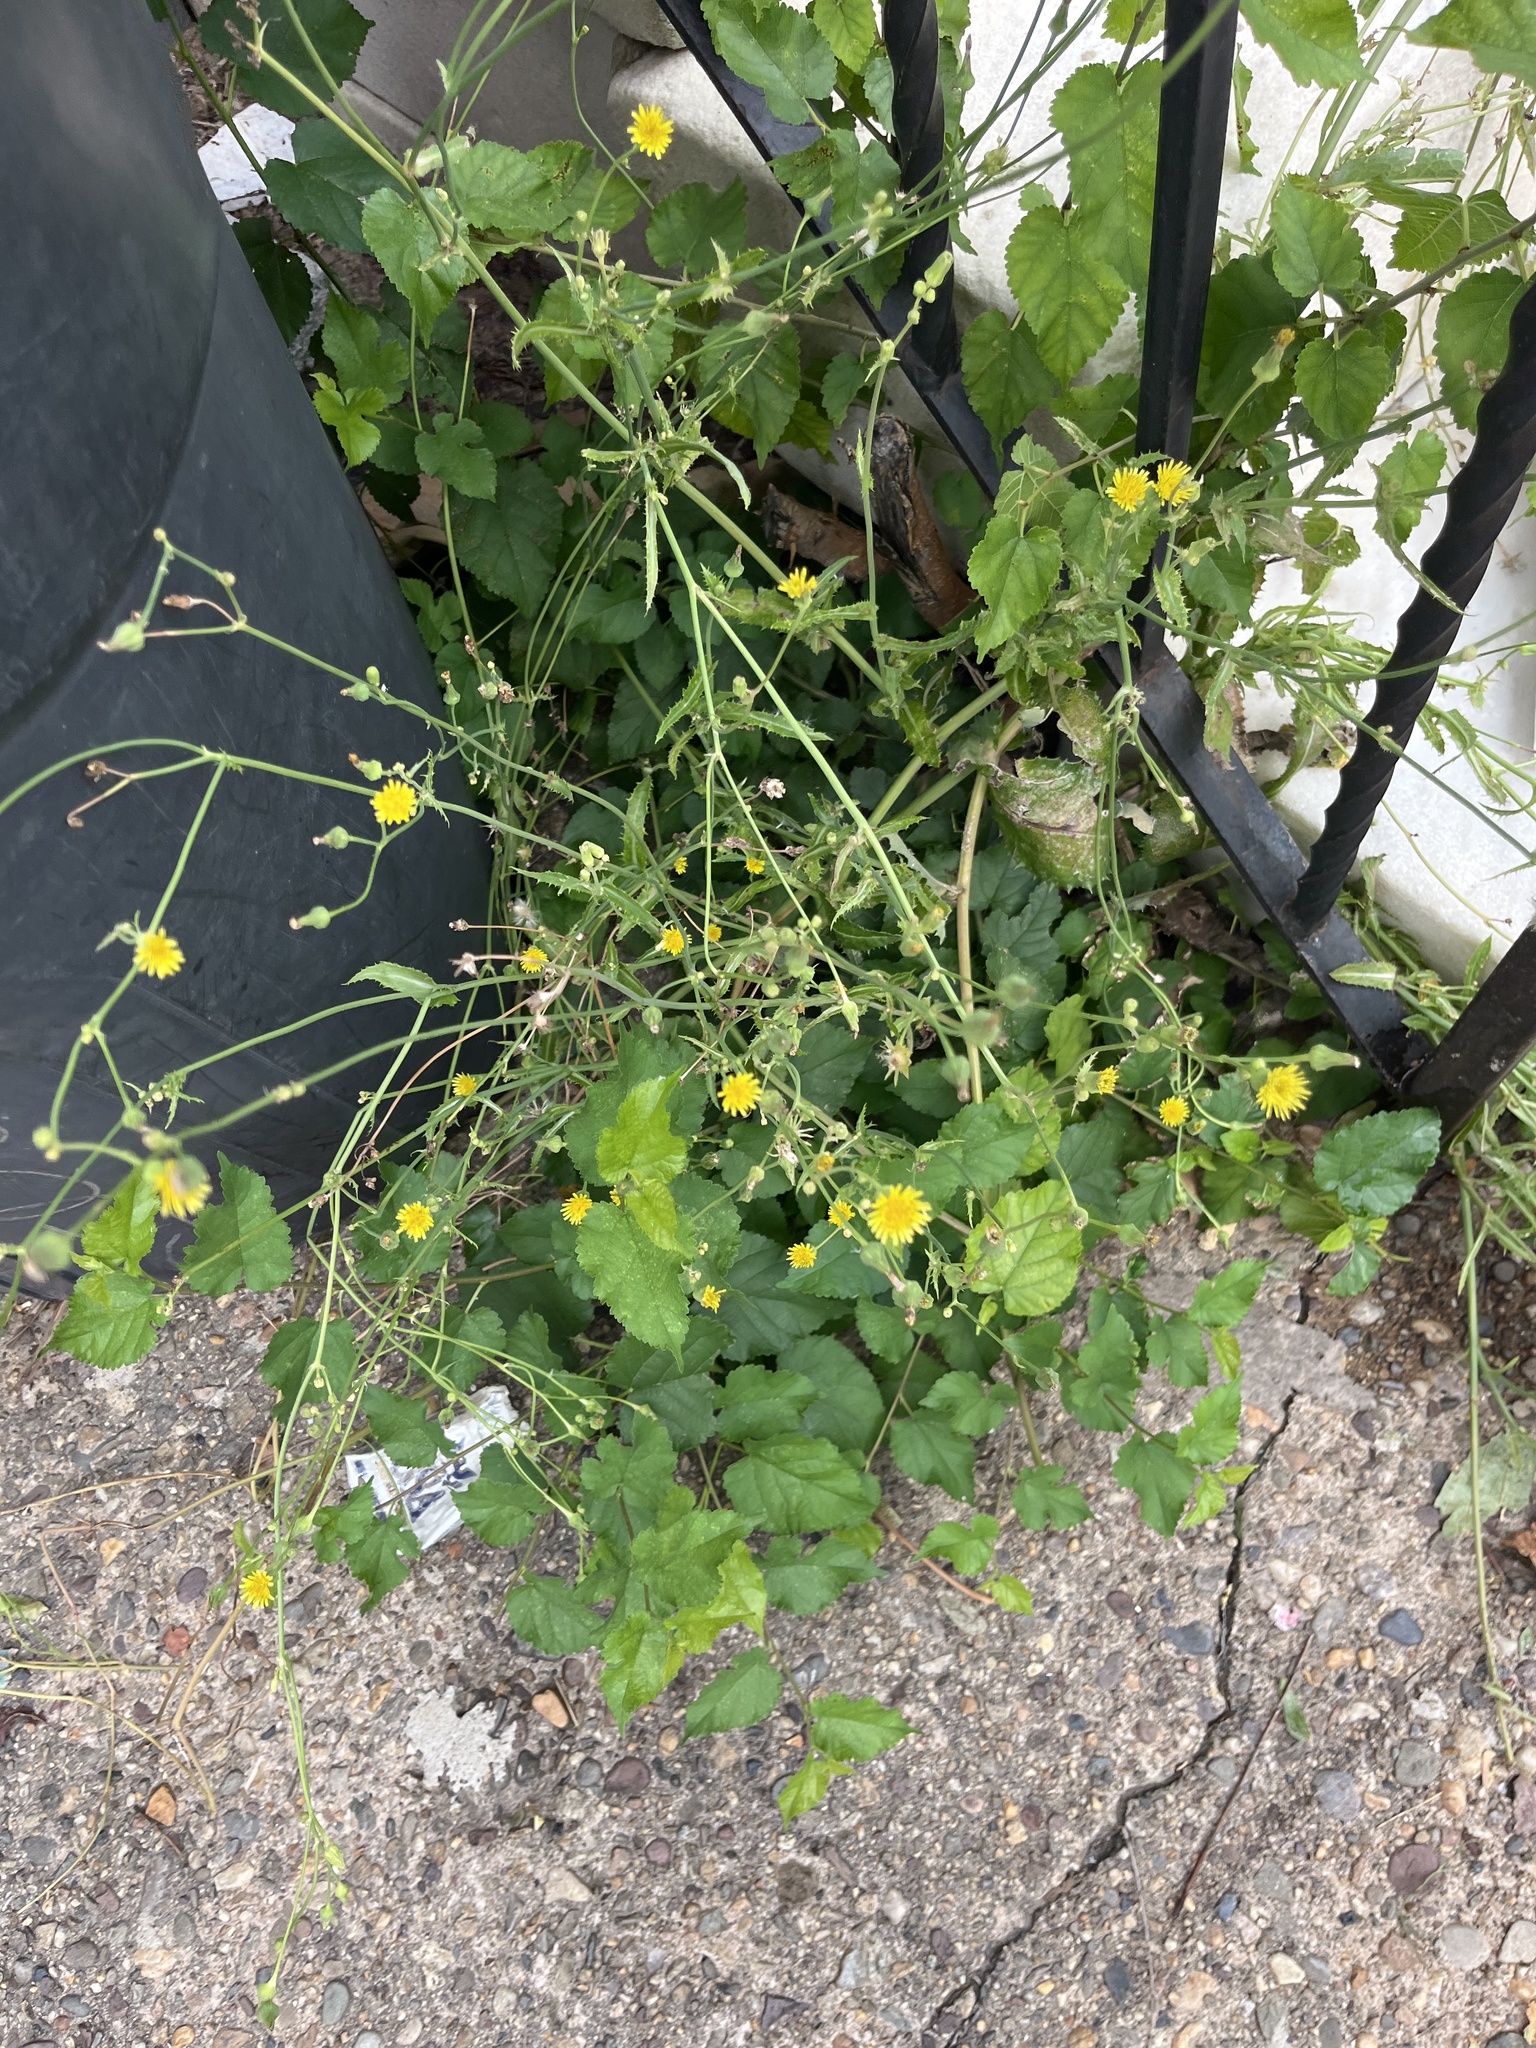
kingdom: Plantae
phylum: Tracheophyta
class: Magnoliopsida
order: Asterales
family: Asteraceae
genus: Youngia
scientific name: Youngia japonica
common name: Oriental false hawksbeard
